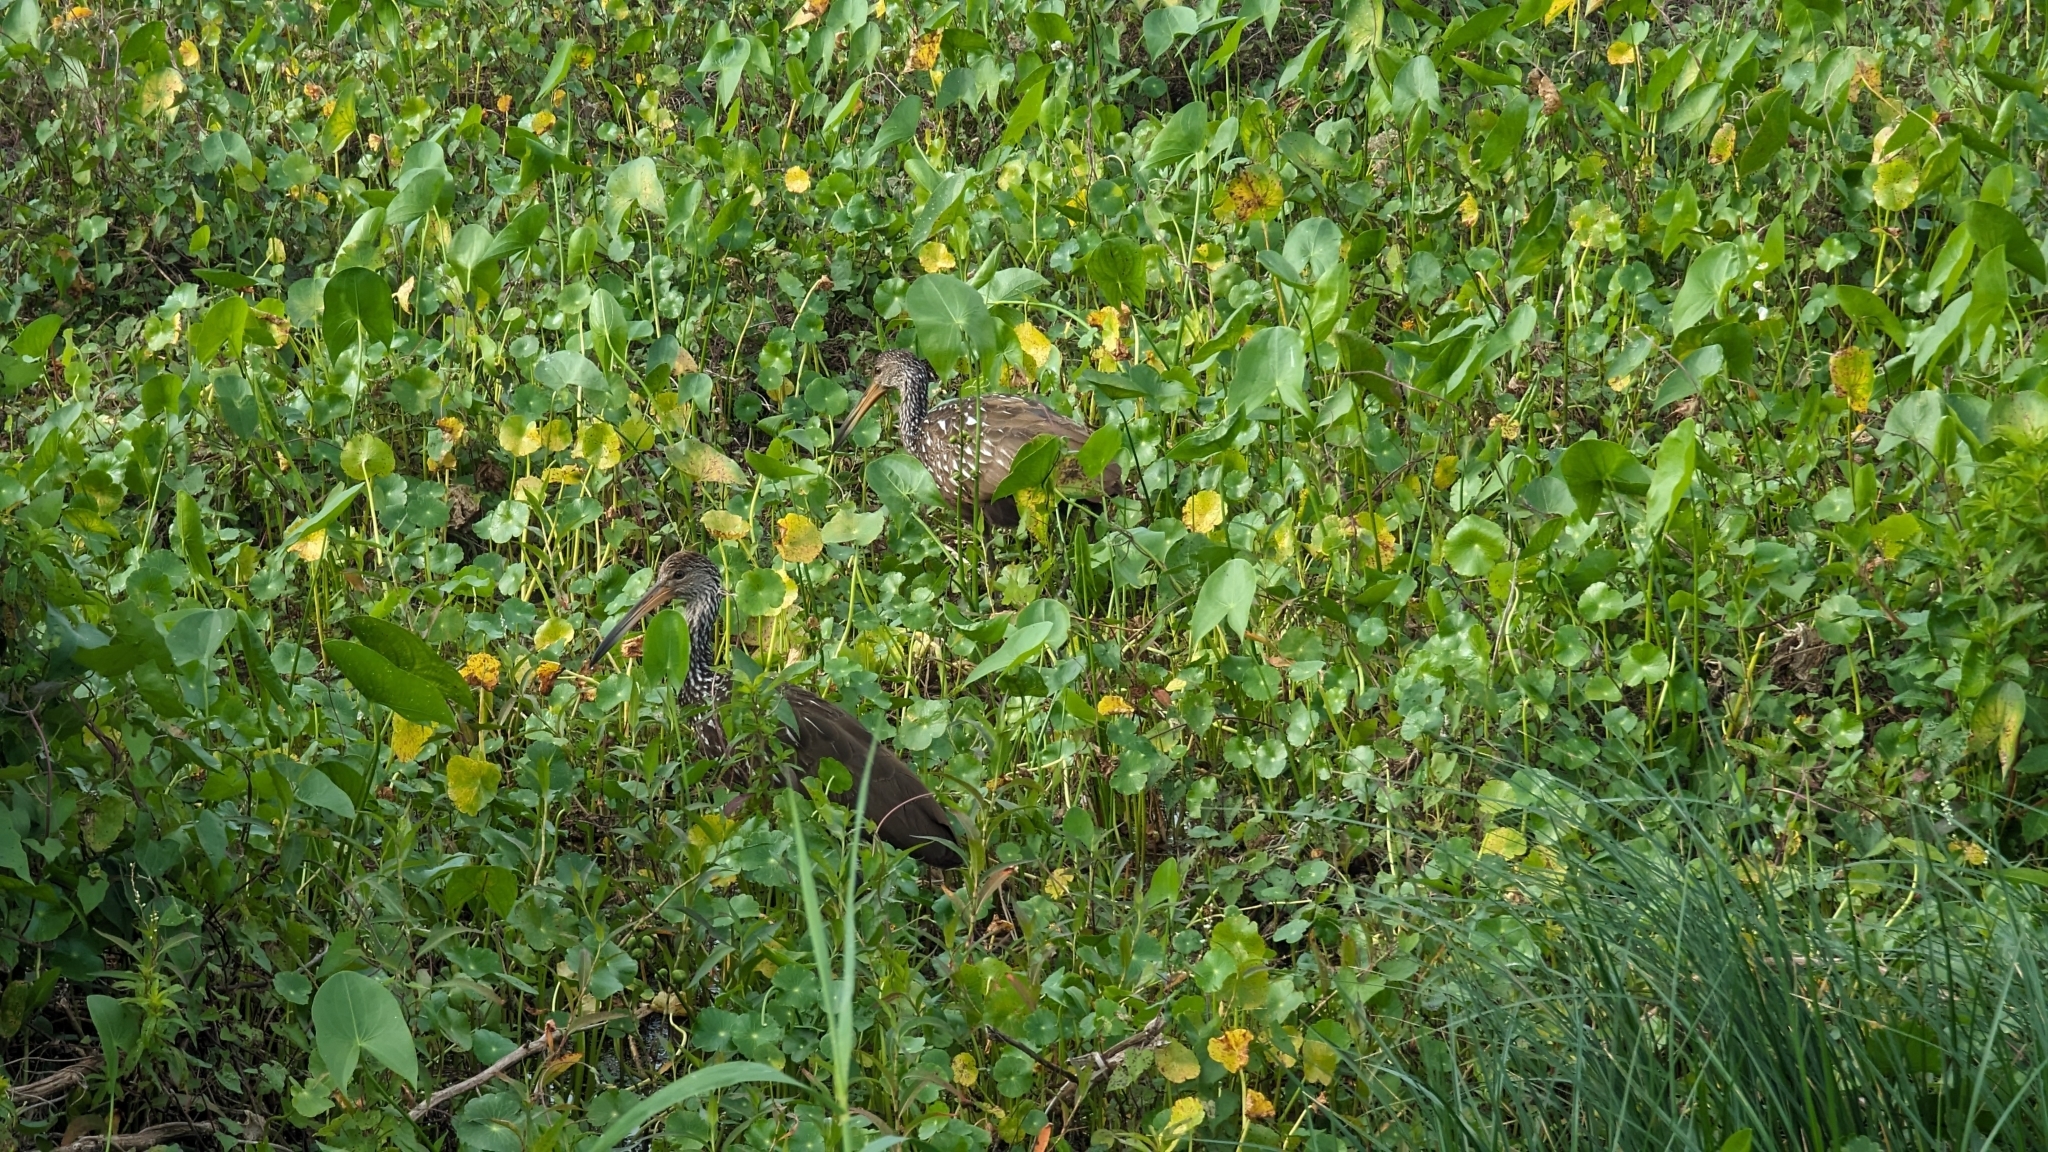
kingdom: Animalia
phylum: Chordata
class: Aves
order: Gruiformes
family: Aramidae
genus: Aramus
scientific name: Aramus guarauna
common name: Limpkin
